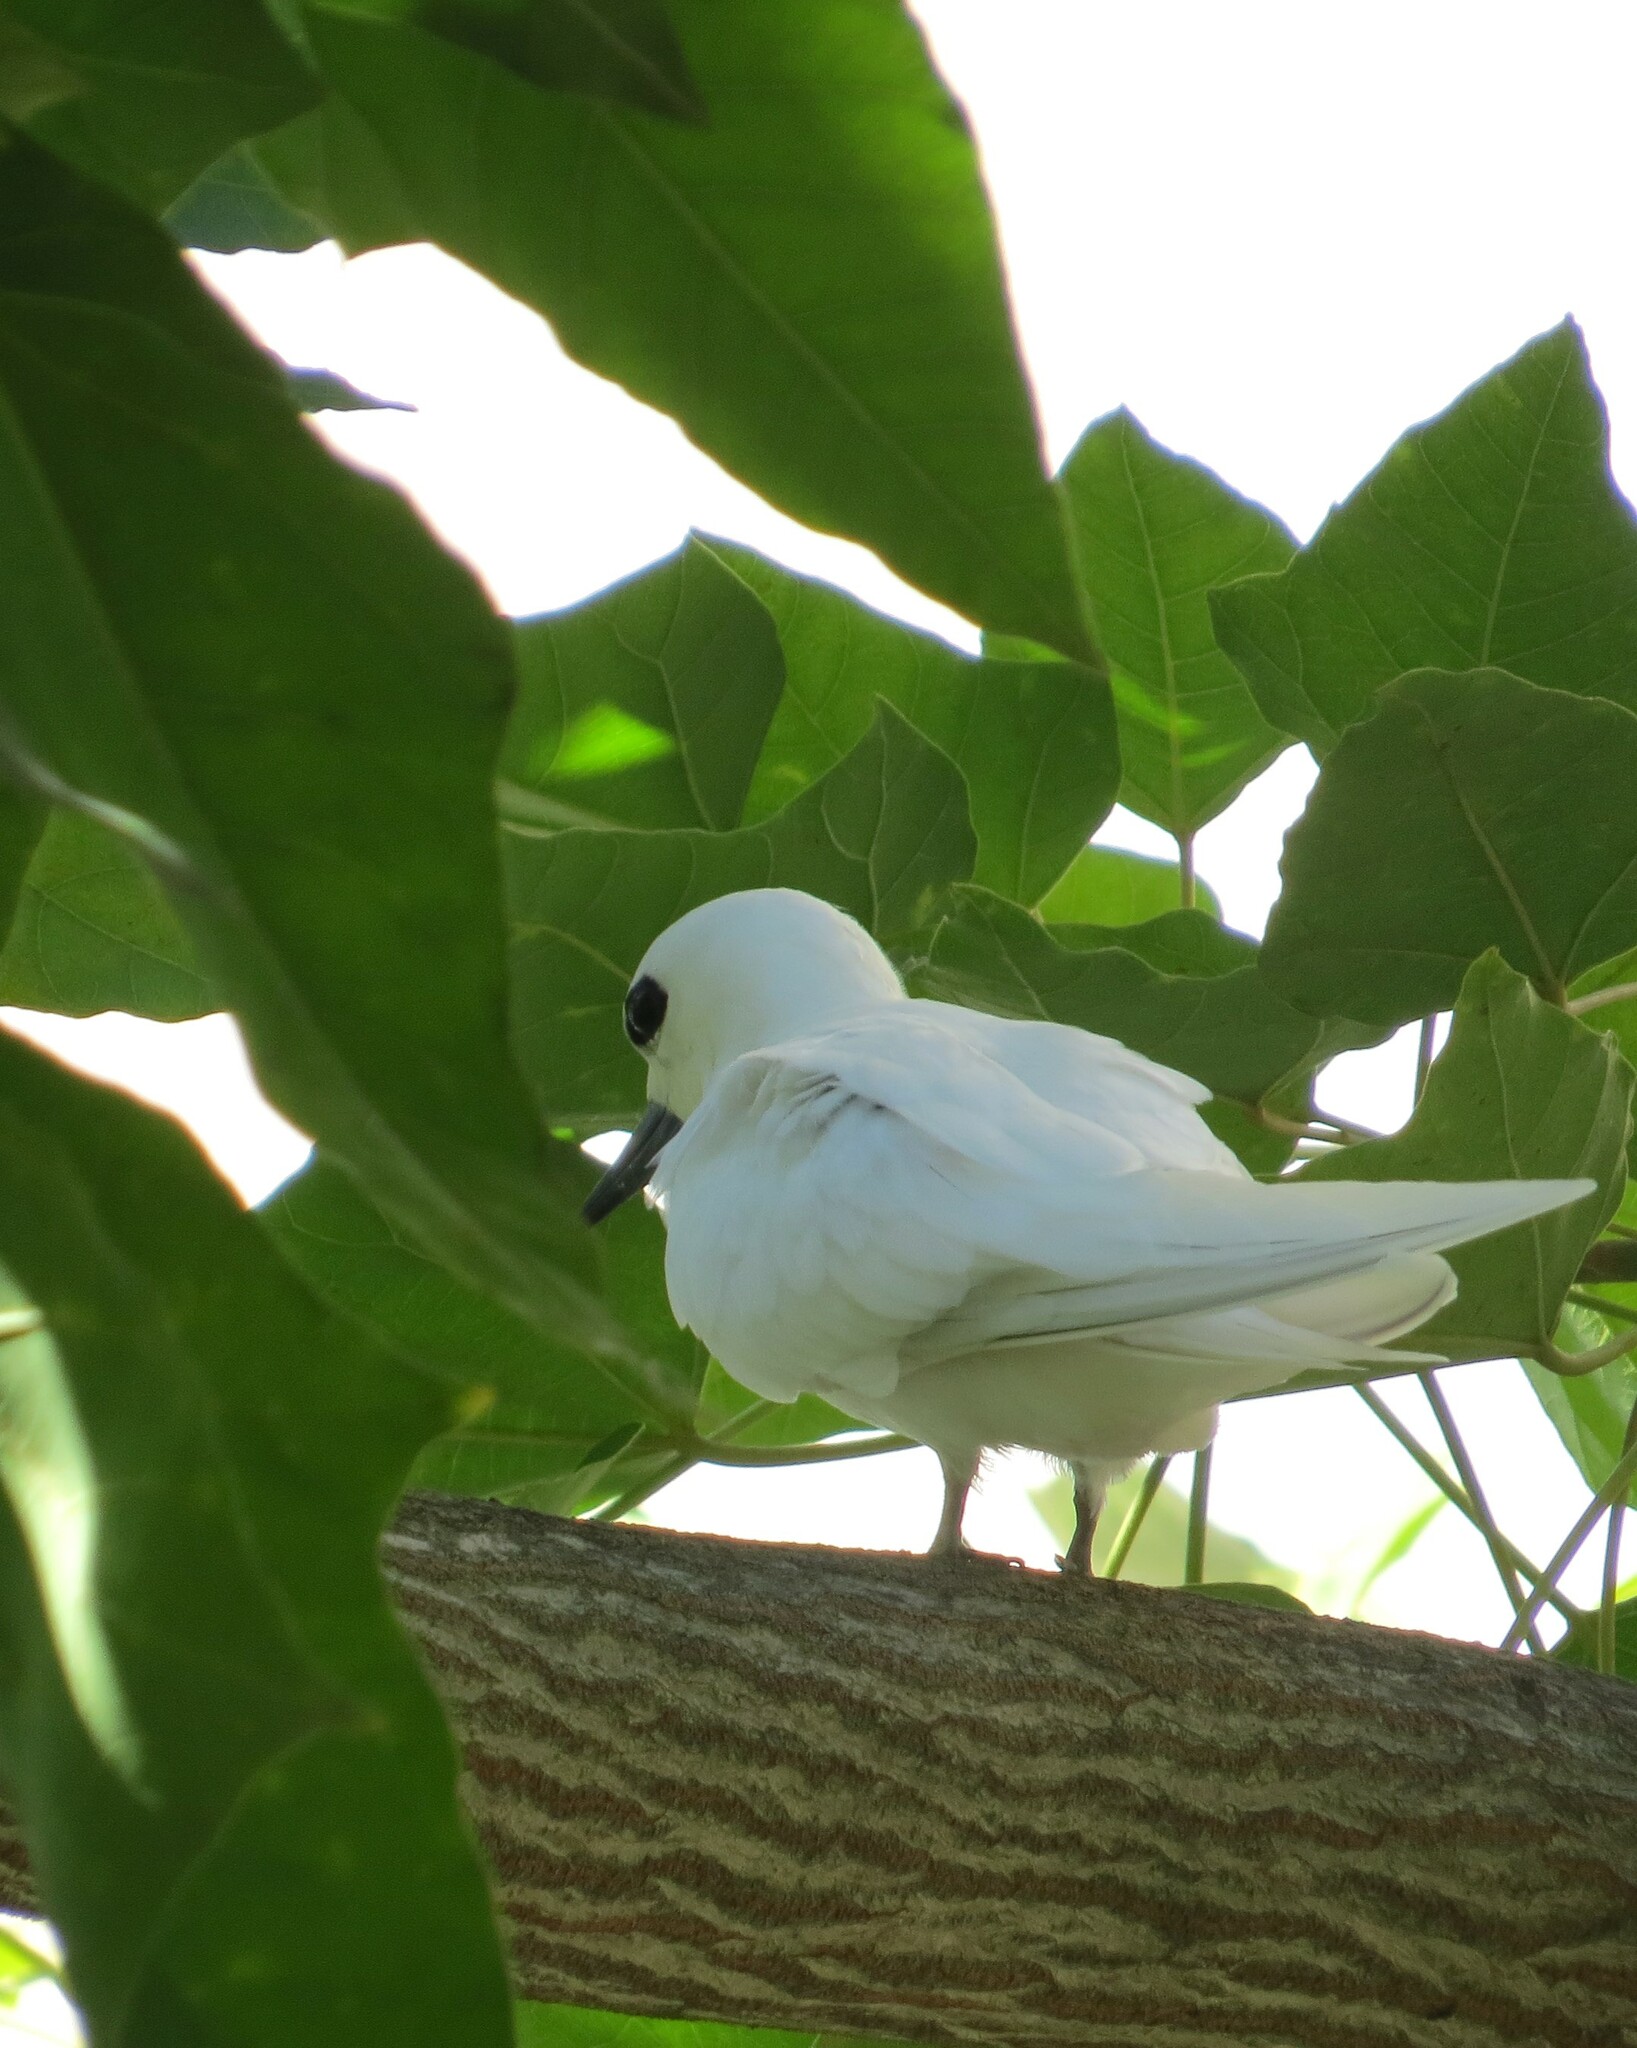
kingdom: Animalia
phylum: Chordata
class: Aves
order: Charadriiformes
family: Laridae
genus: Gygis
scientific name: Gygis alba
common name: White tern
